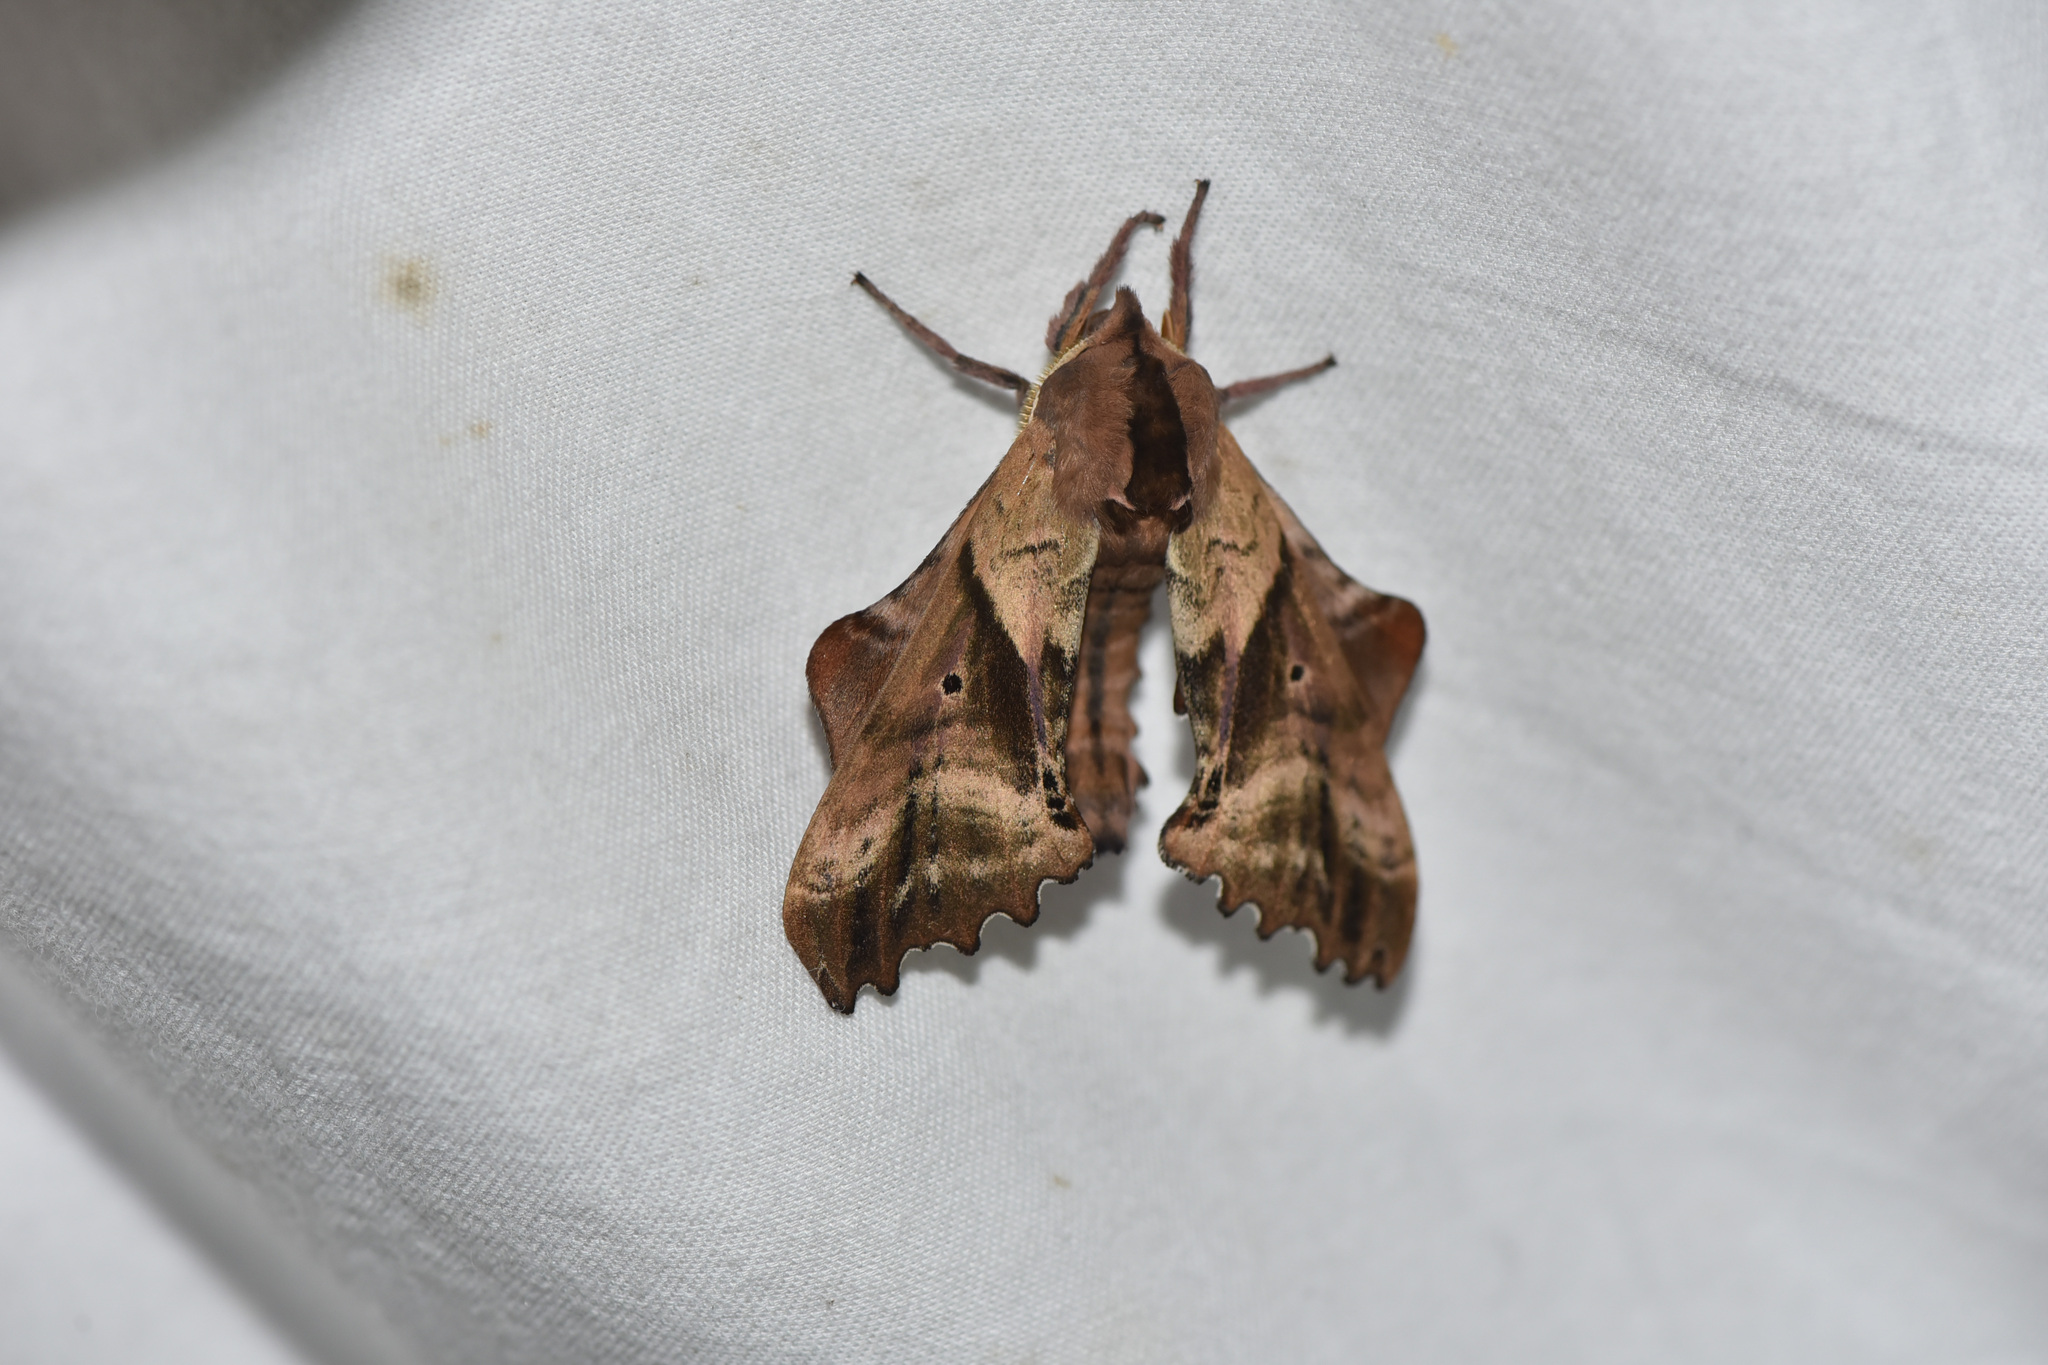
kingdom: Animalia
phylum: Arthropoda
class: Insecta
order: Lepidoptera
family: Sphingidae
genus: Paonias
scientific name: Paonias excaecata
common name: Blind-eyed sphinx
